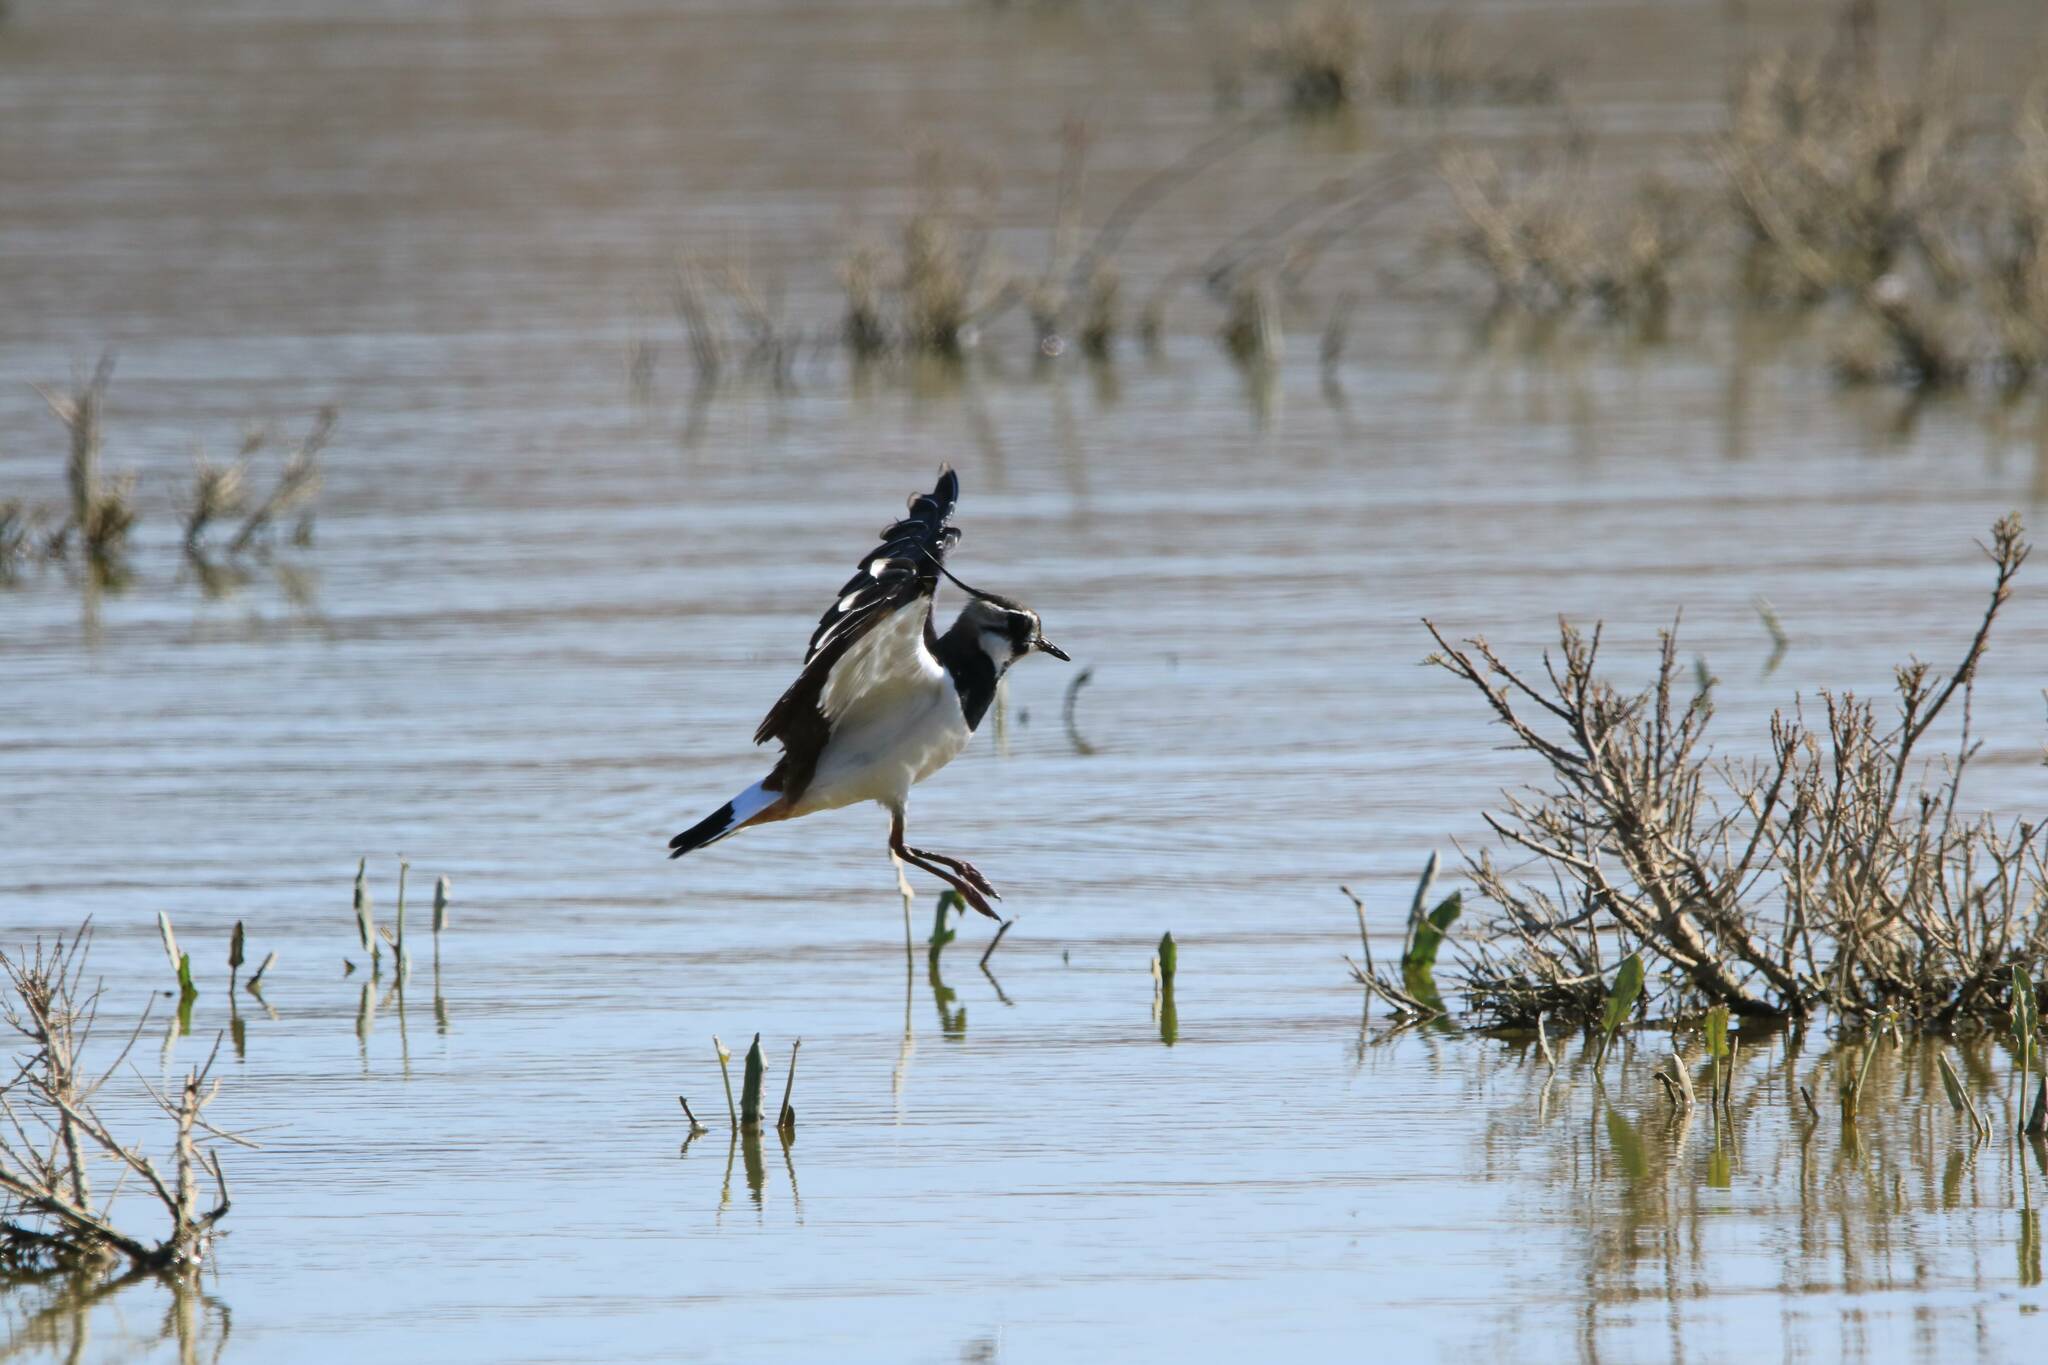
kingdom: Animalia
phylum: Chordata
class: Aves
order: Charadriiformes
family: Charadriidae
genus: Vanellus
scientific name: Vanellus vanellus
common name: Northern lapwing
